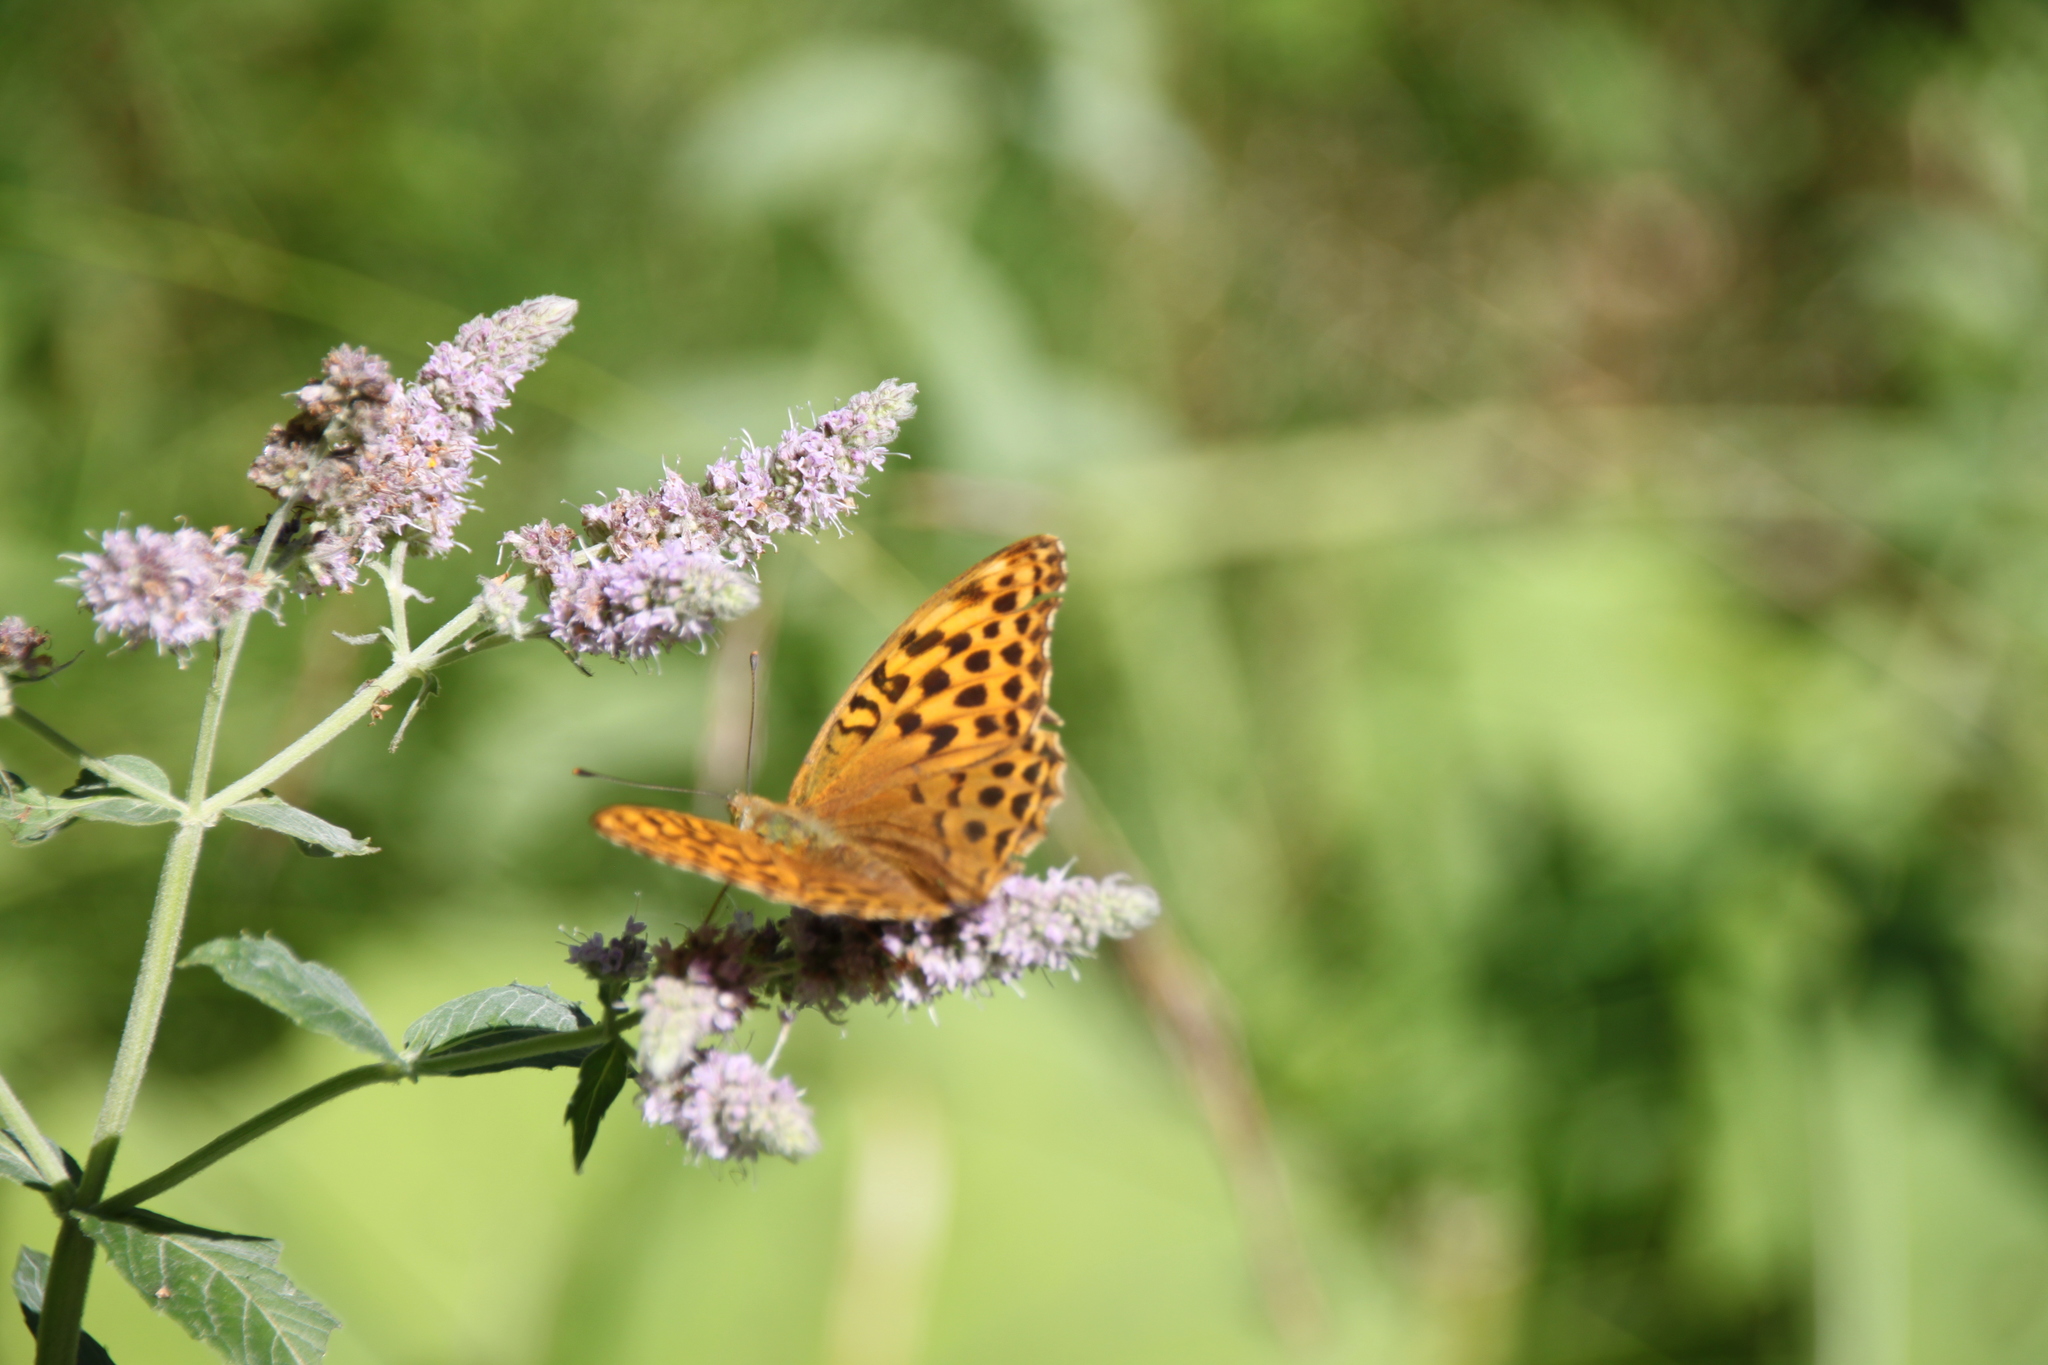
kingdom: Animalia
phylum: Arthropoda
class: Insecta
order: Lepidoptera
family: Nymphalidae
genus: Argynnis
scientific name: Argynnis paphia
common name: Silver-washed fritillary
